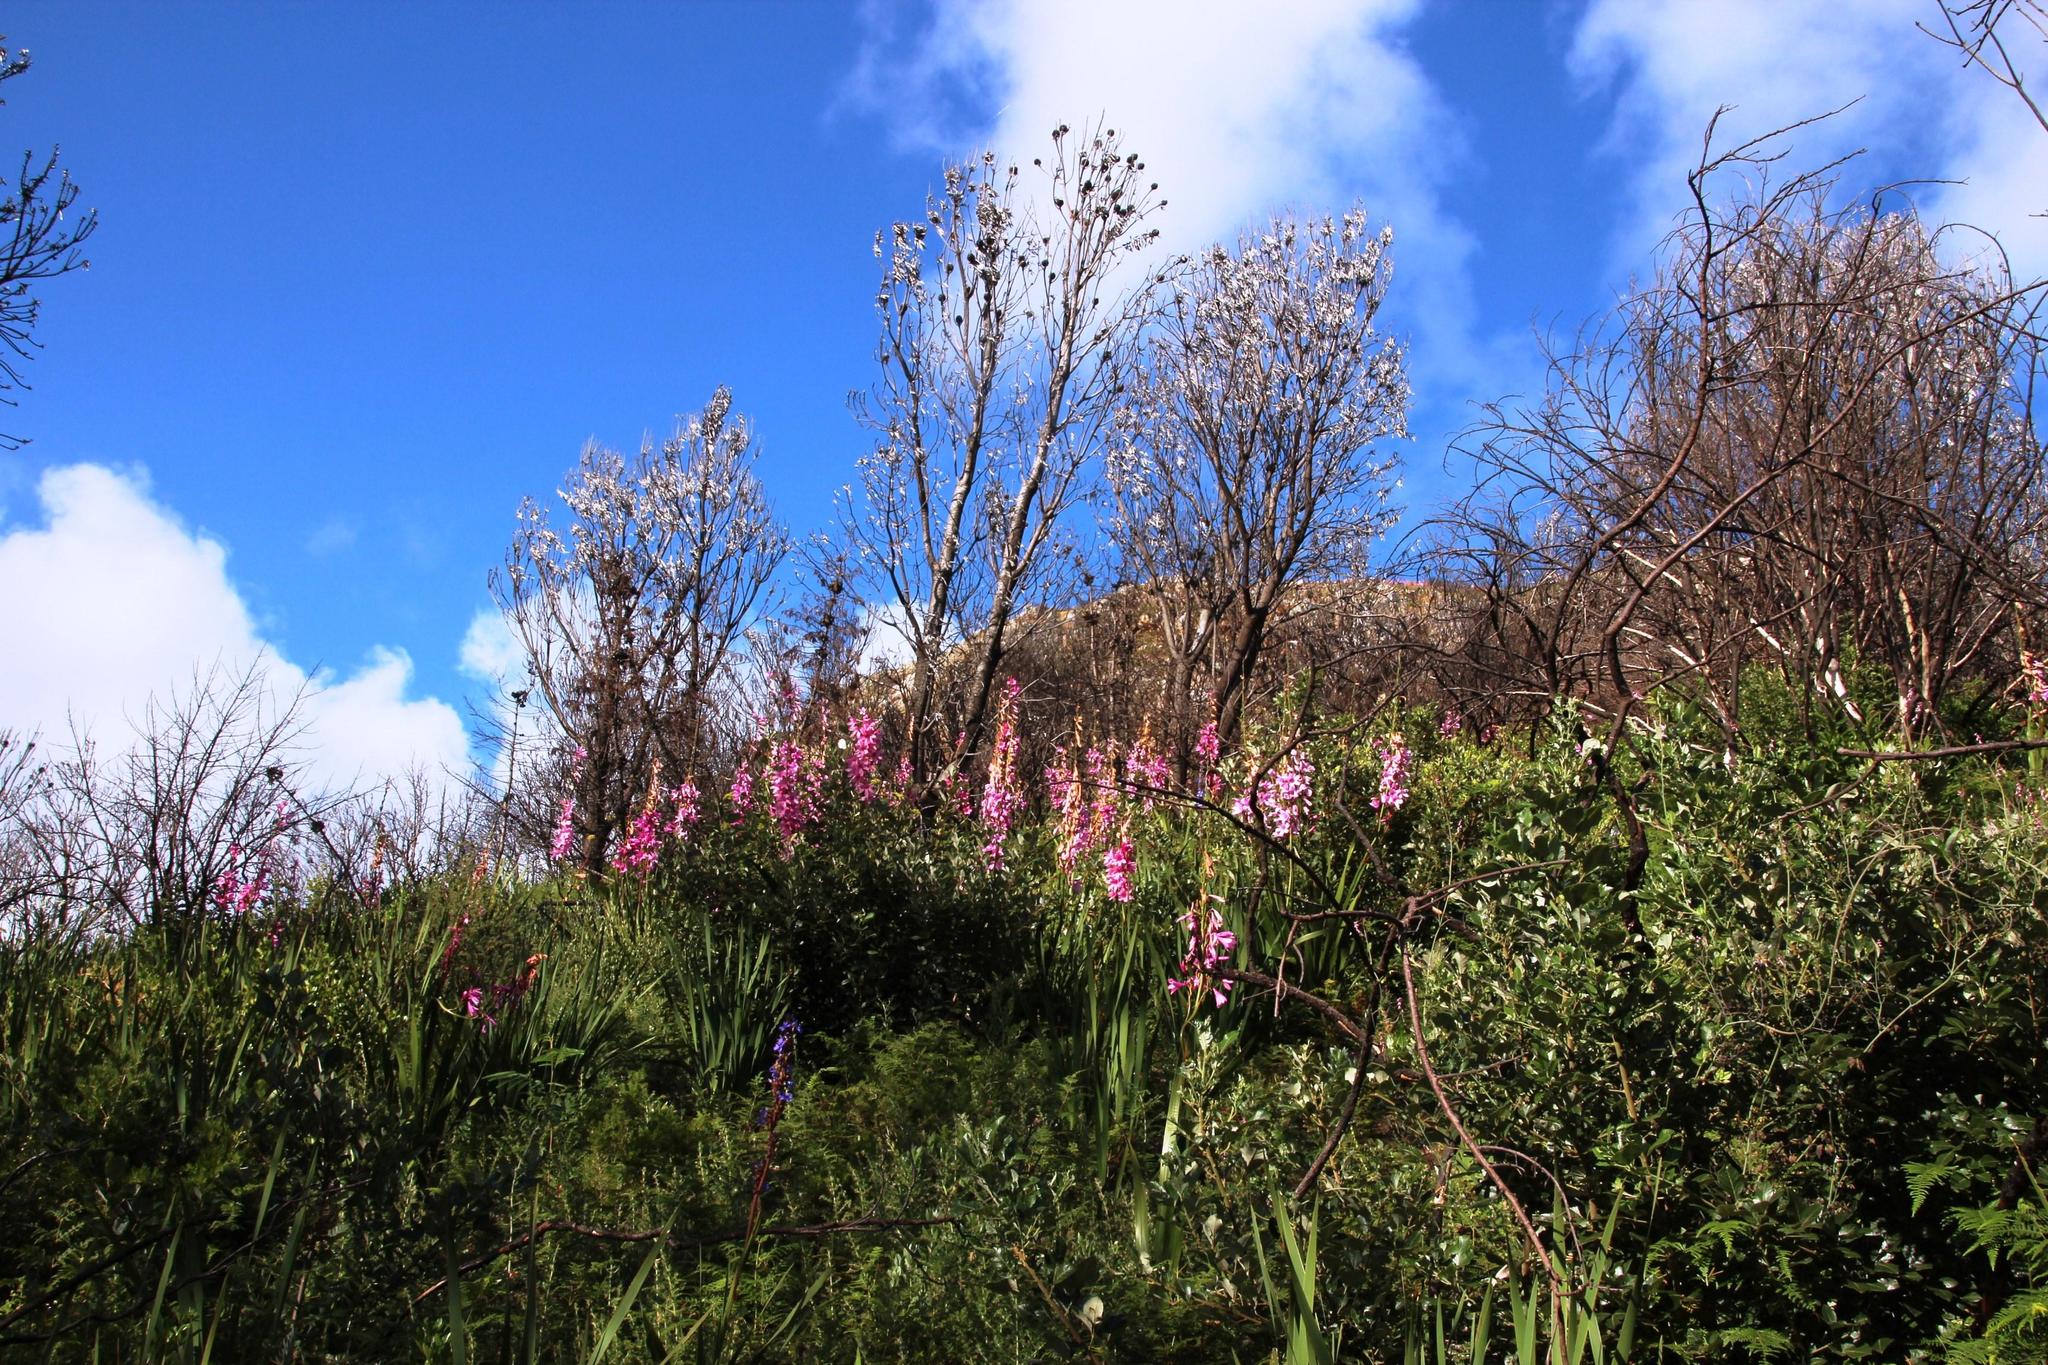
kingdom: Plantae
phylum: Tracheophyta
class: Liliopsida
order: Asparagales
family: Iridaceae
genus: Watsonia
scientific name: Watsonia borbonica
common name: Bugle-lily
